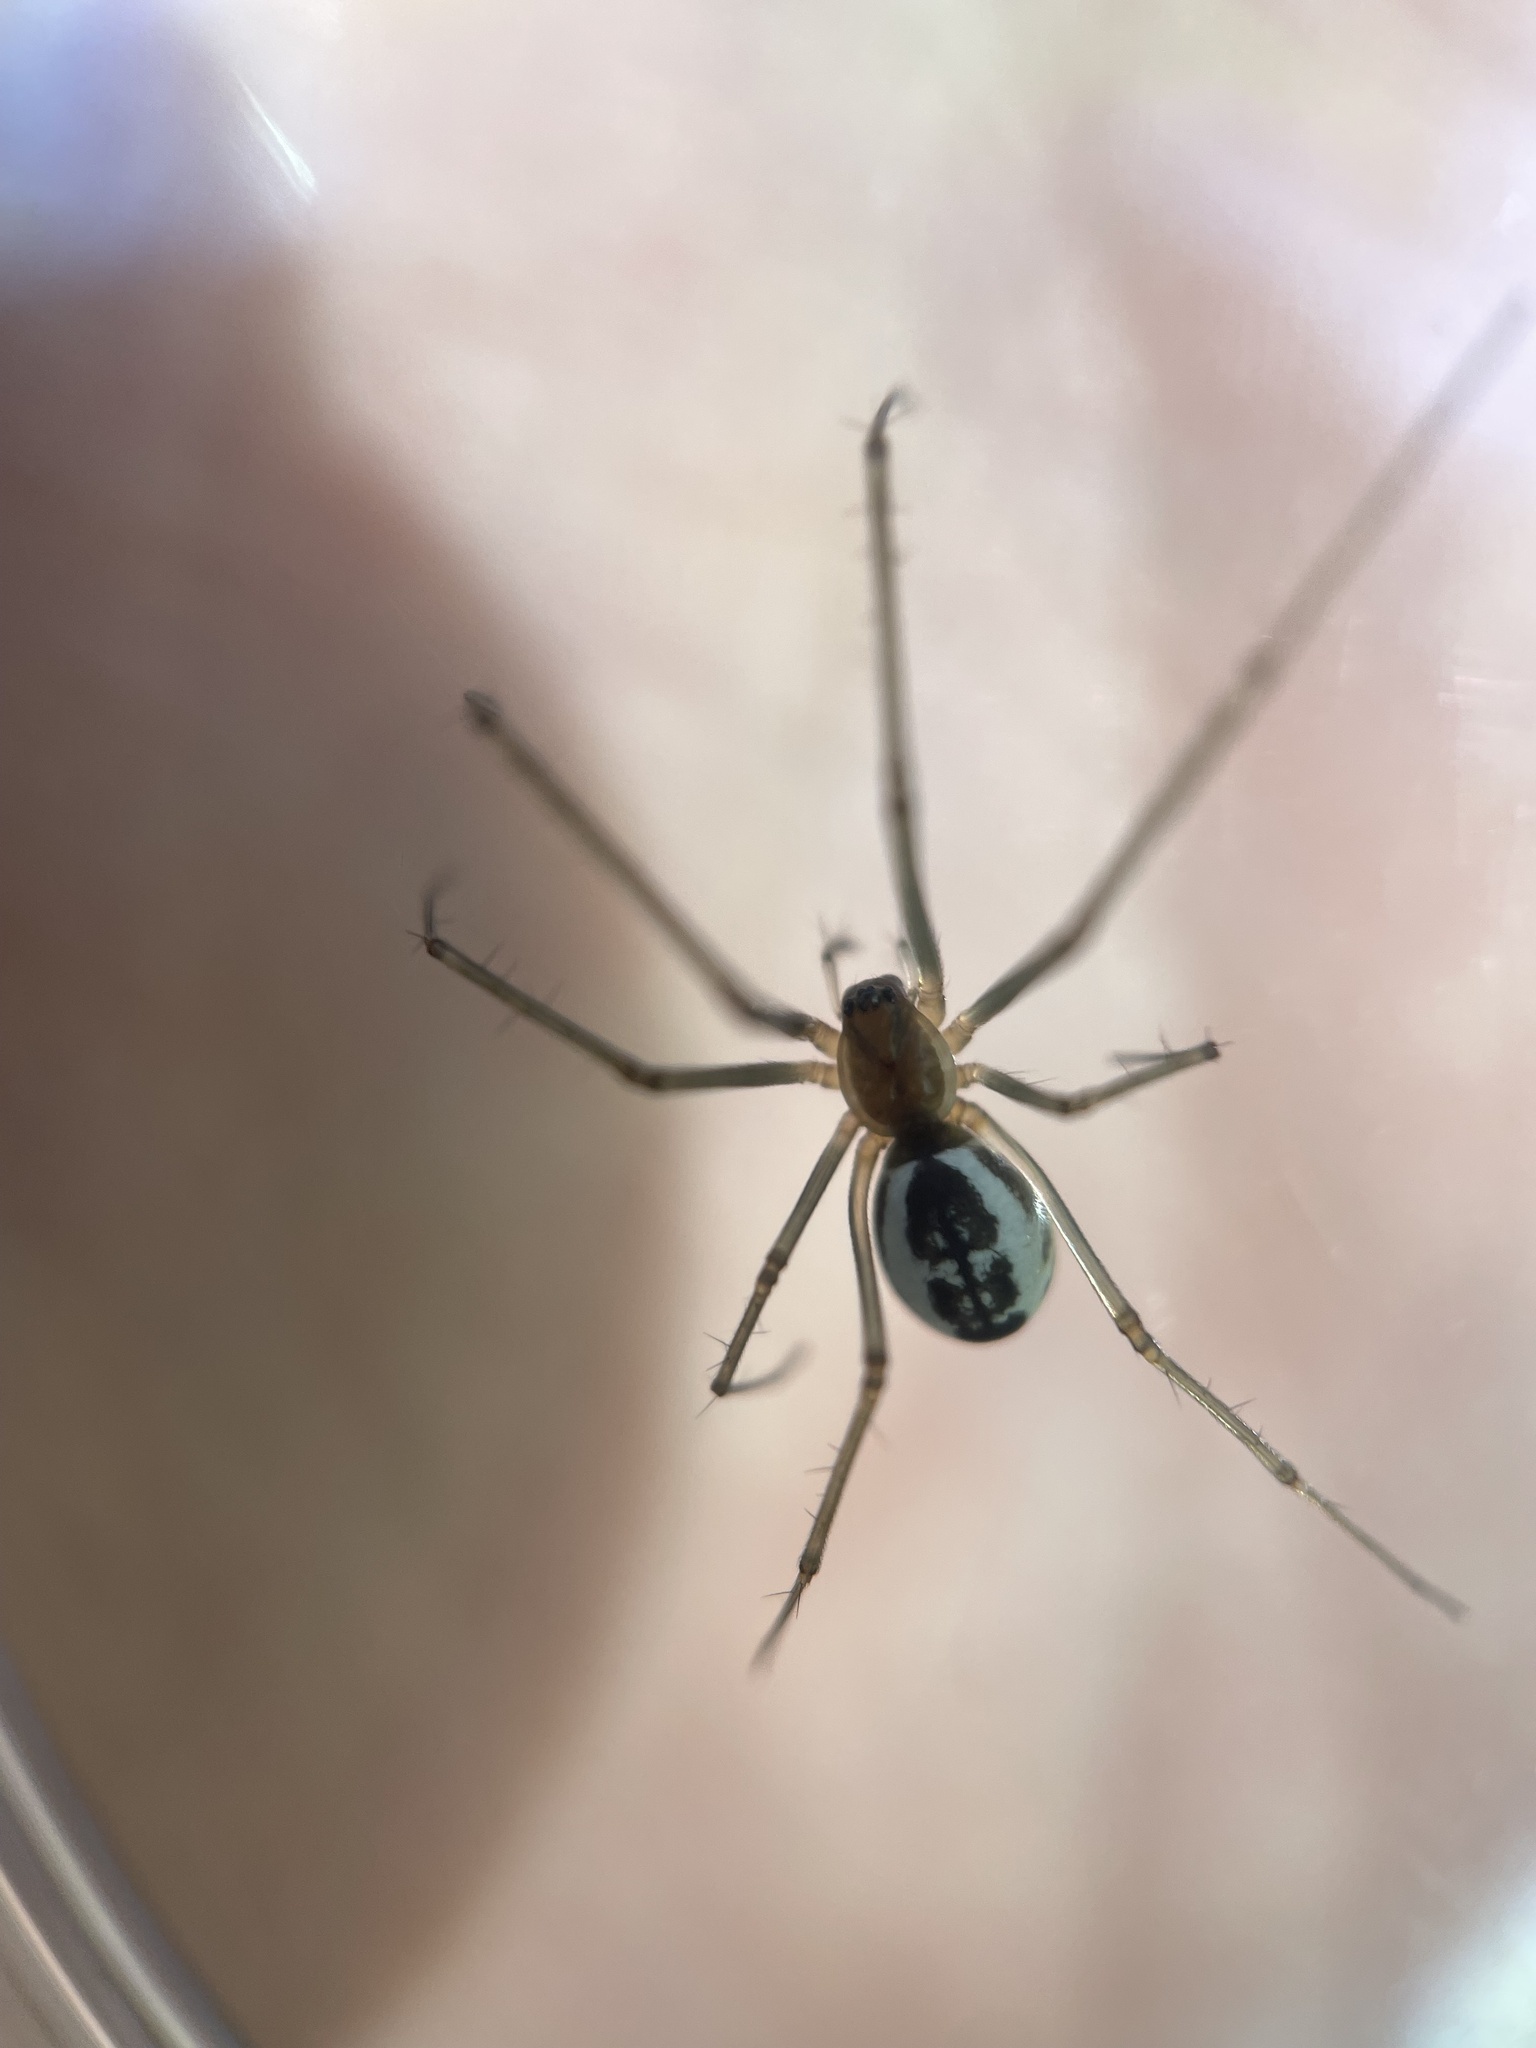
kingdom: Animalia
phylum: Arthropoda
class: Arachnida
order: Araneae
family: Linyphiidae
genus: Neriene
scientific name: Neriene radiata
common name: Filmy dome spider
